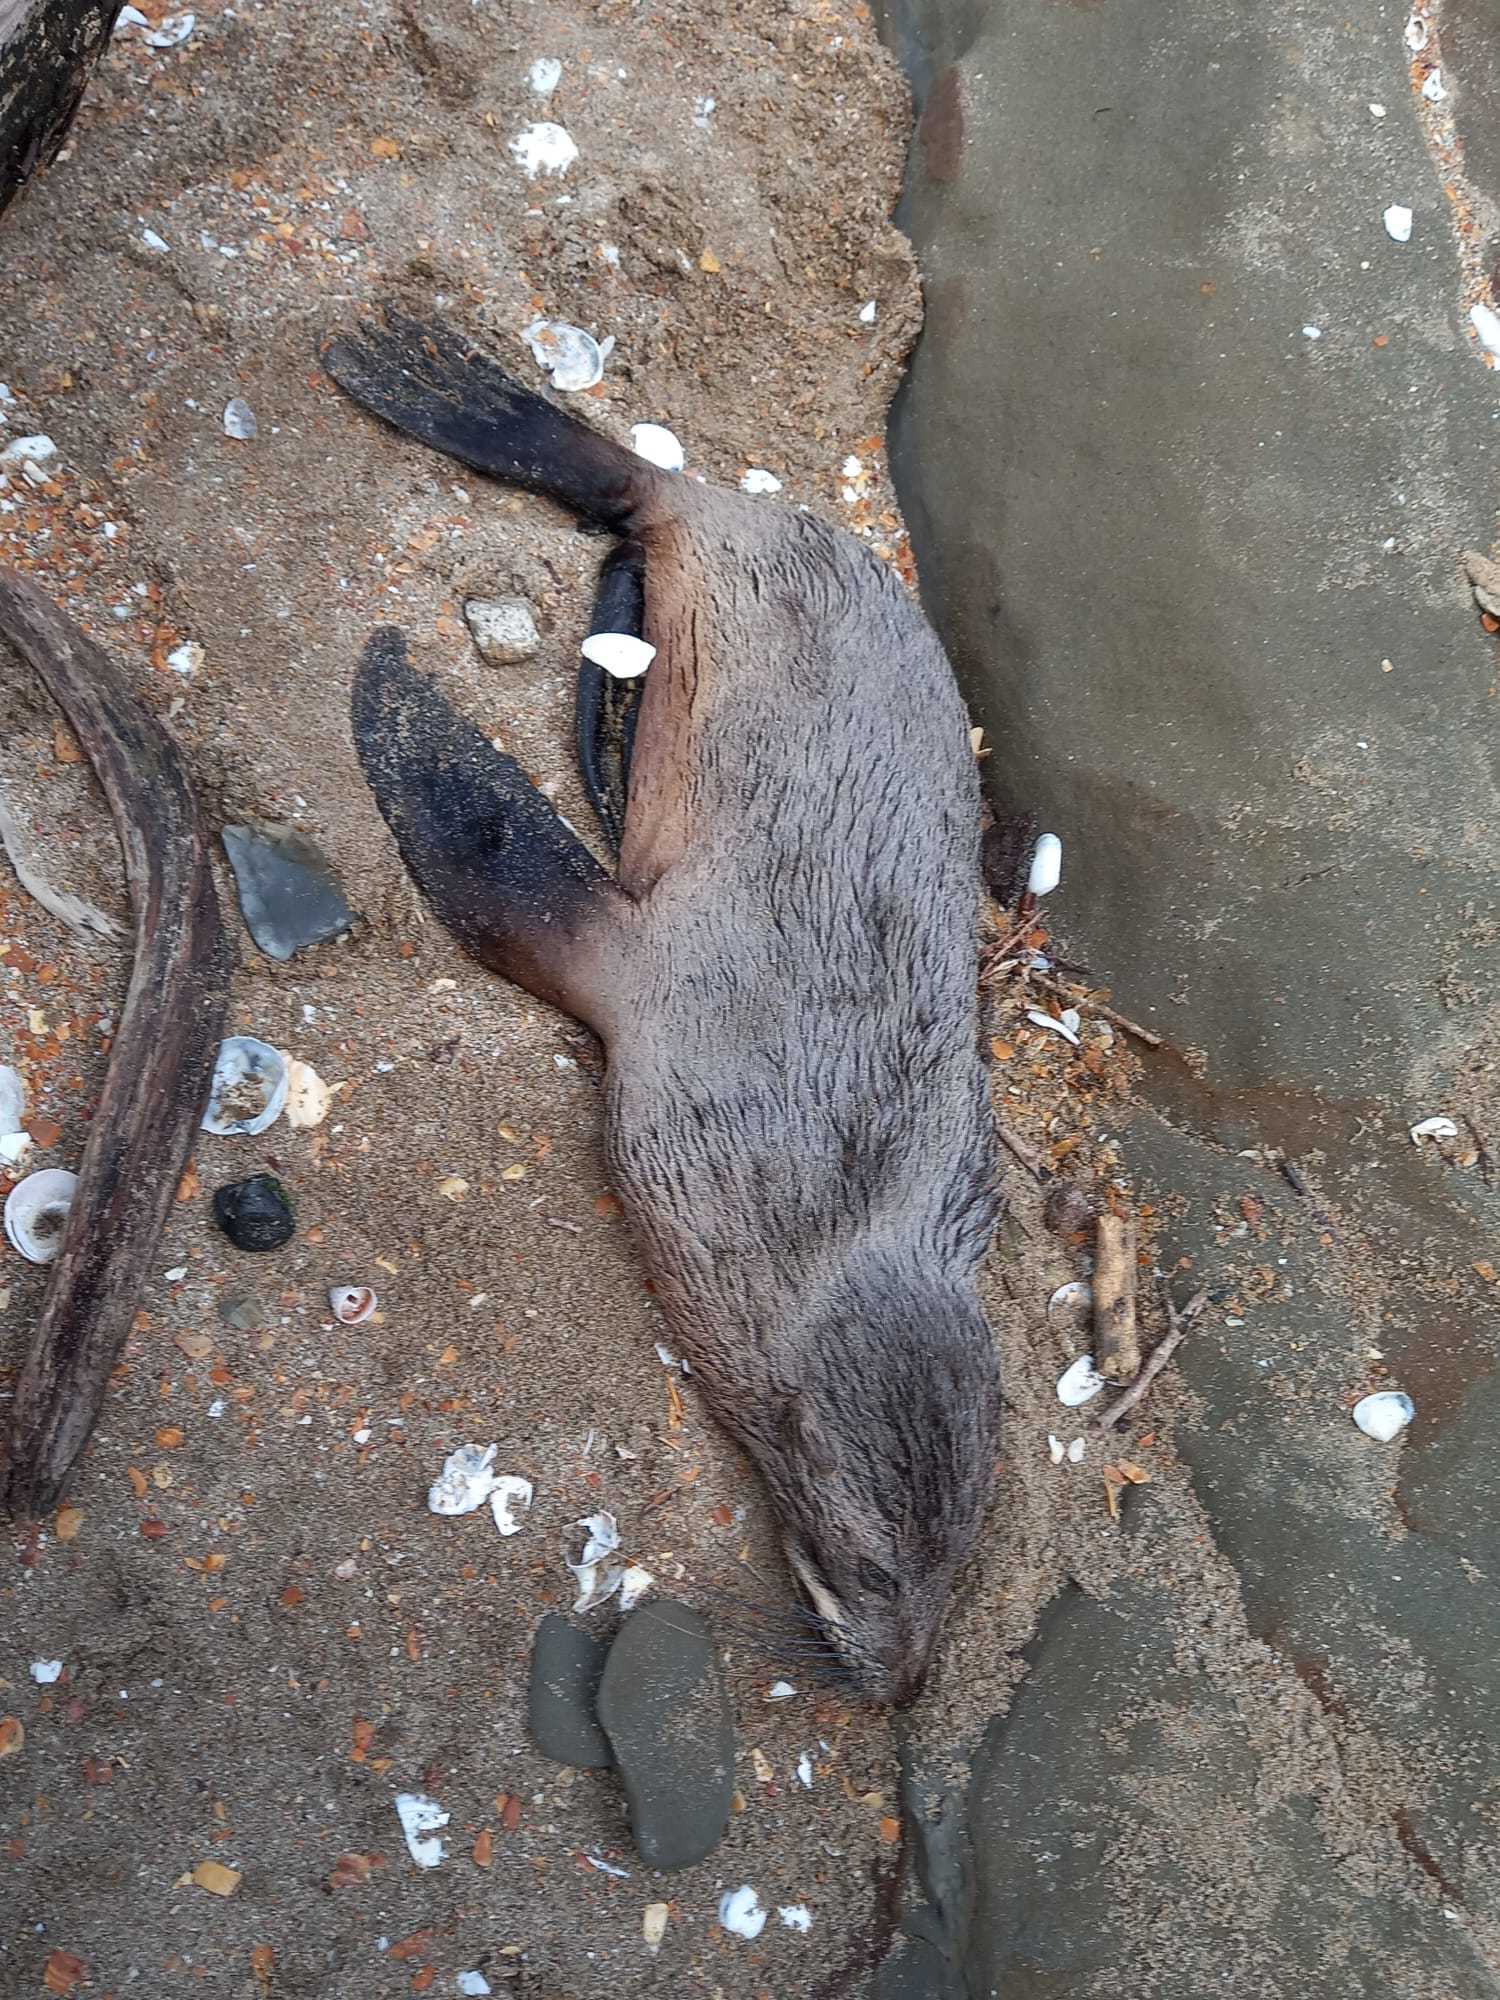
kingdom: Animalia
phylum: Chordata
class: Mammalia
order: Carnivora
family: Otariidae
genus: Arctocephalus
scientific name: Arctocephalus forsteri
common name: New zealand fur seal
